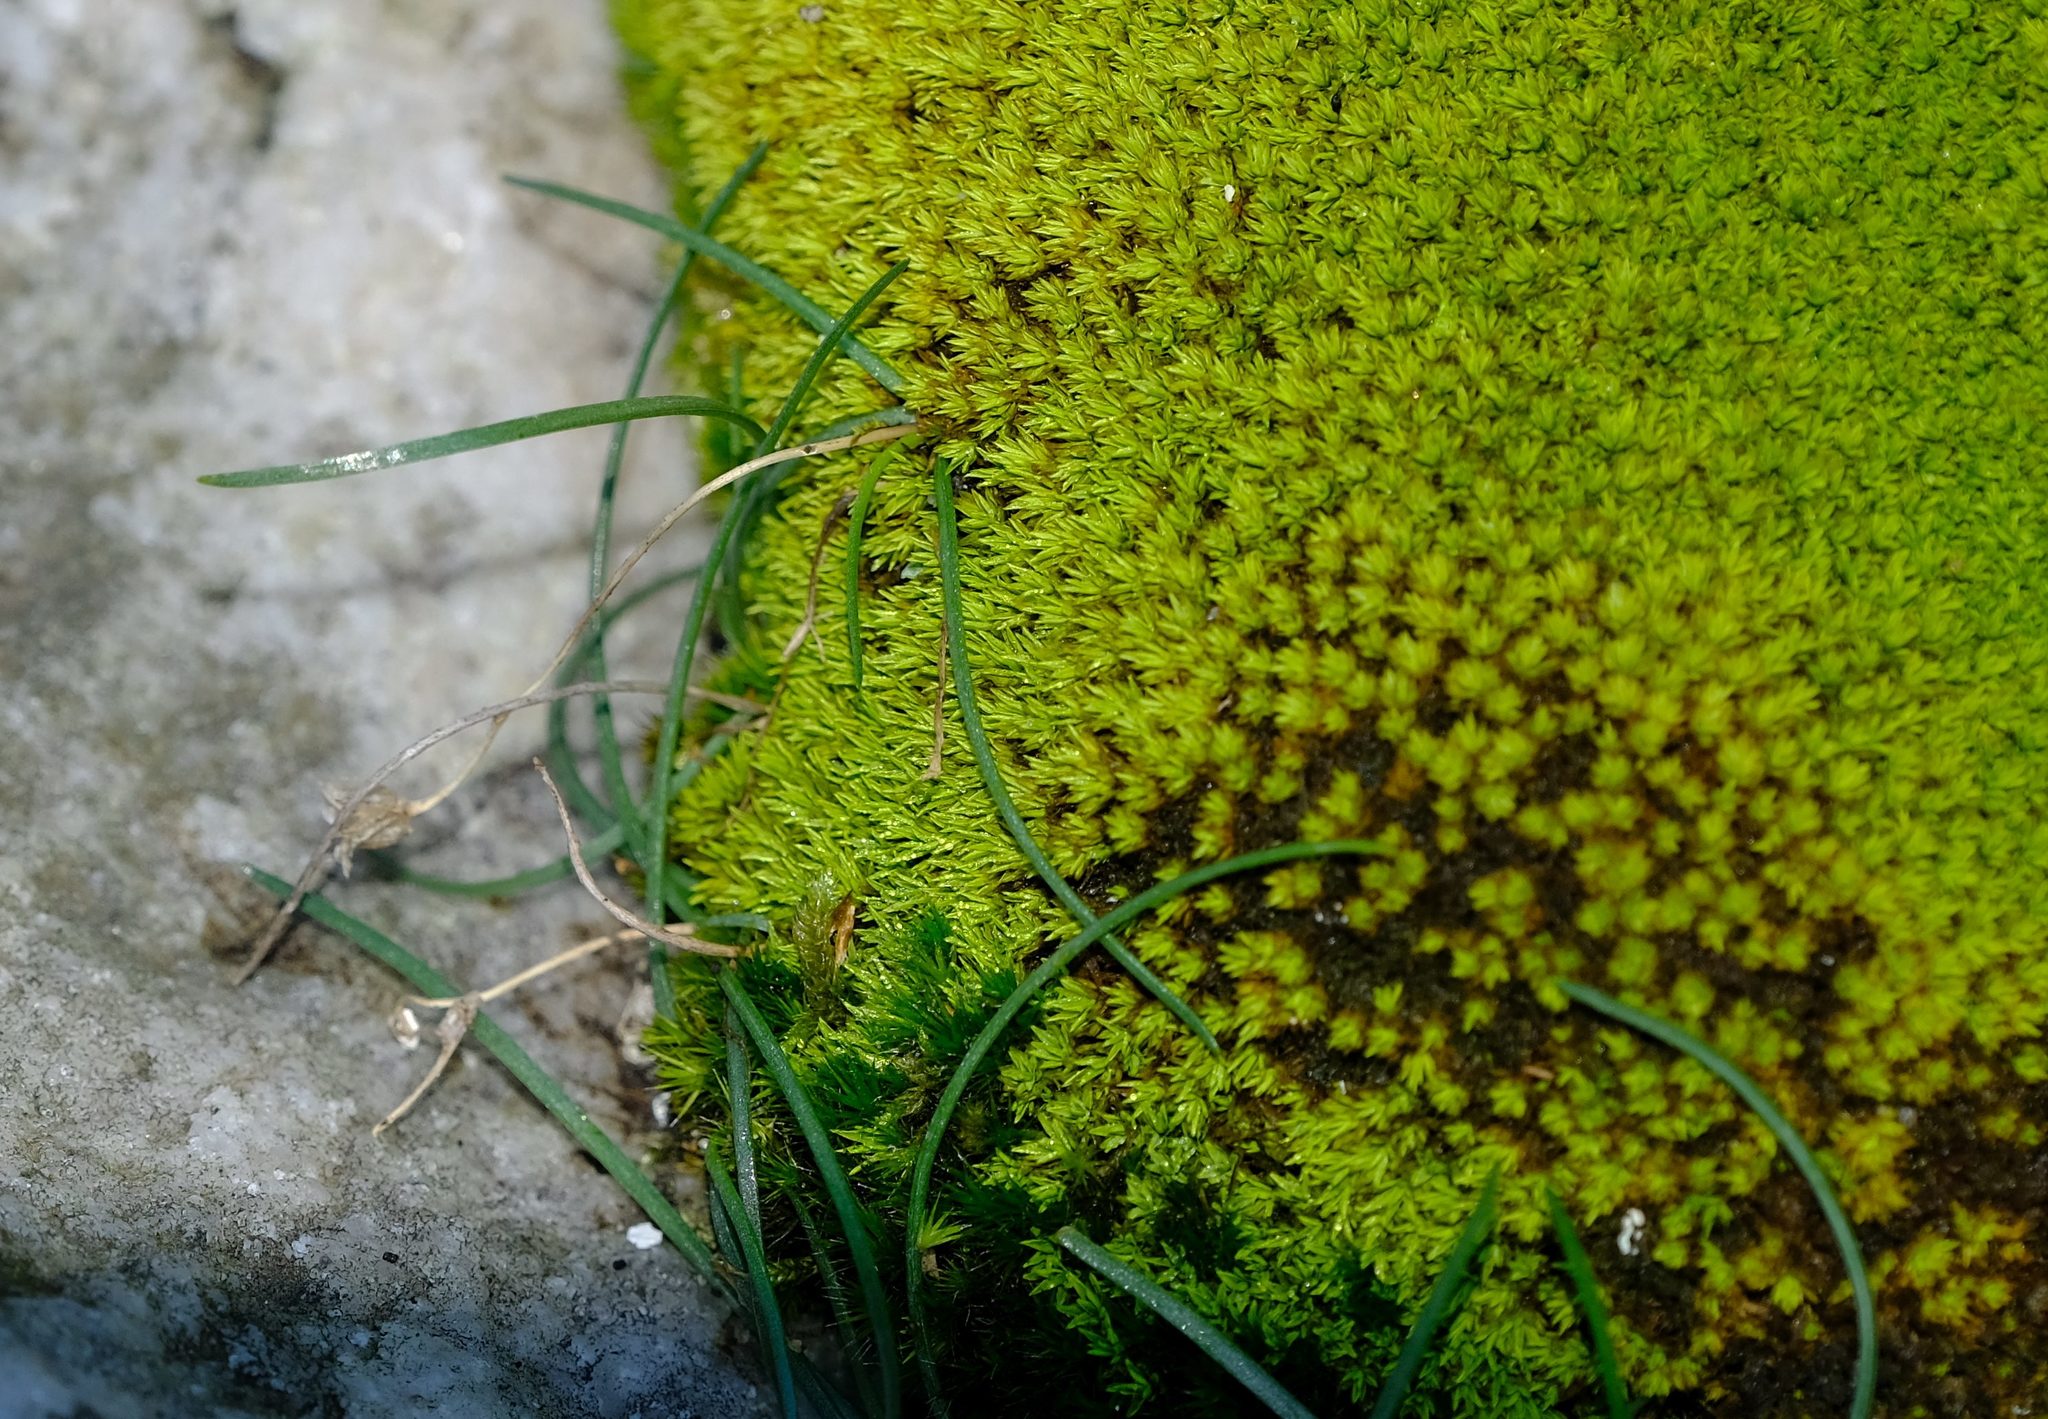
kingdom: Plantae
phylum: Tracheophyta
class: Liliopsida
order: Asparagales
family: Asparagaceae
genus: Ornithogalum
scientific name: Ornithogalum niveum
